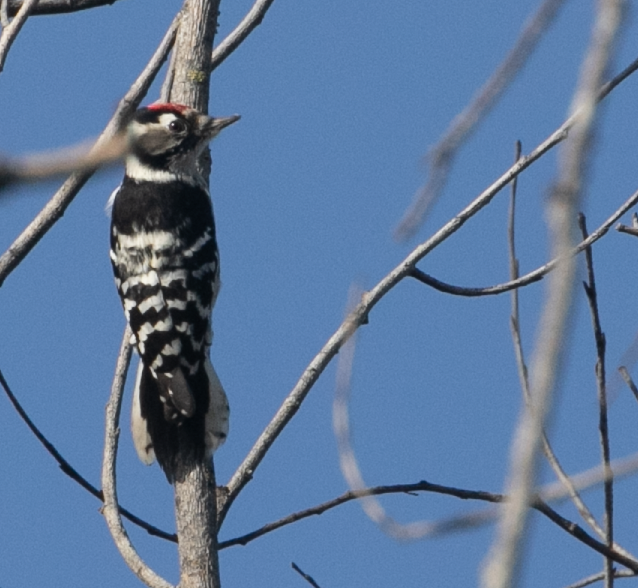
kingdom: Animalia
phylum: Chordata
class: Aves
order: Piciformes
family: Picidae
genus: Dryobates
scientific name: Dryobates minor
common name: Lesser spotted woodpecker
